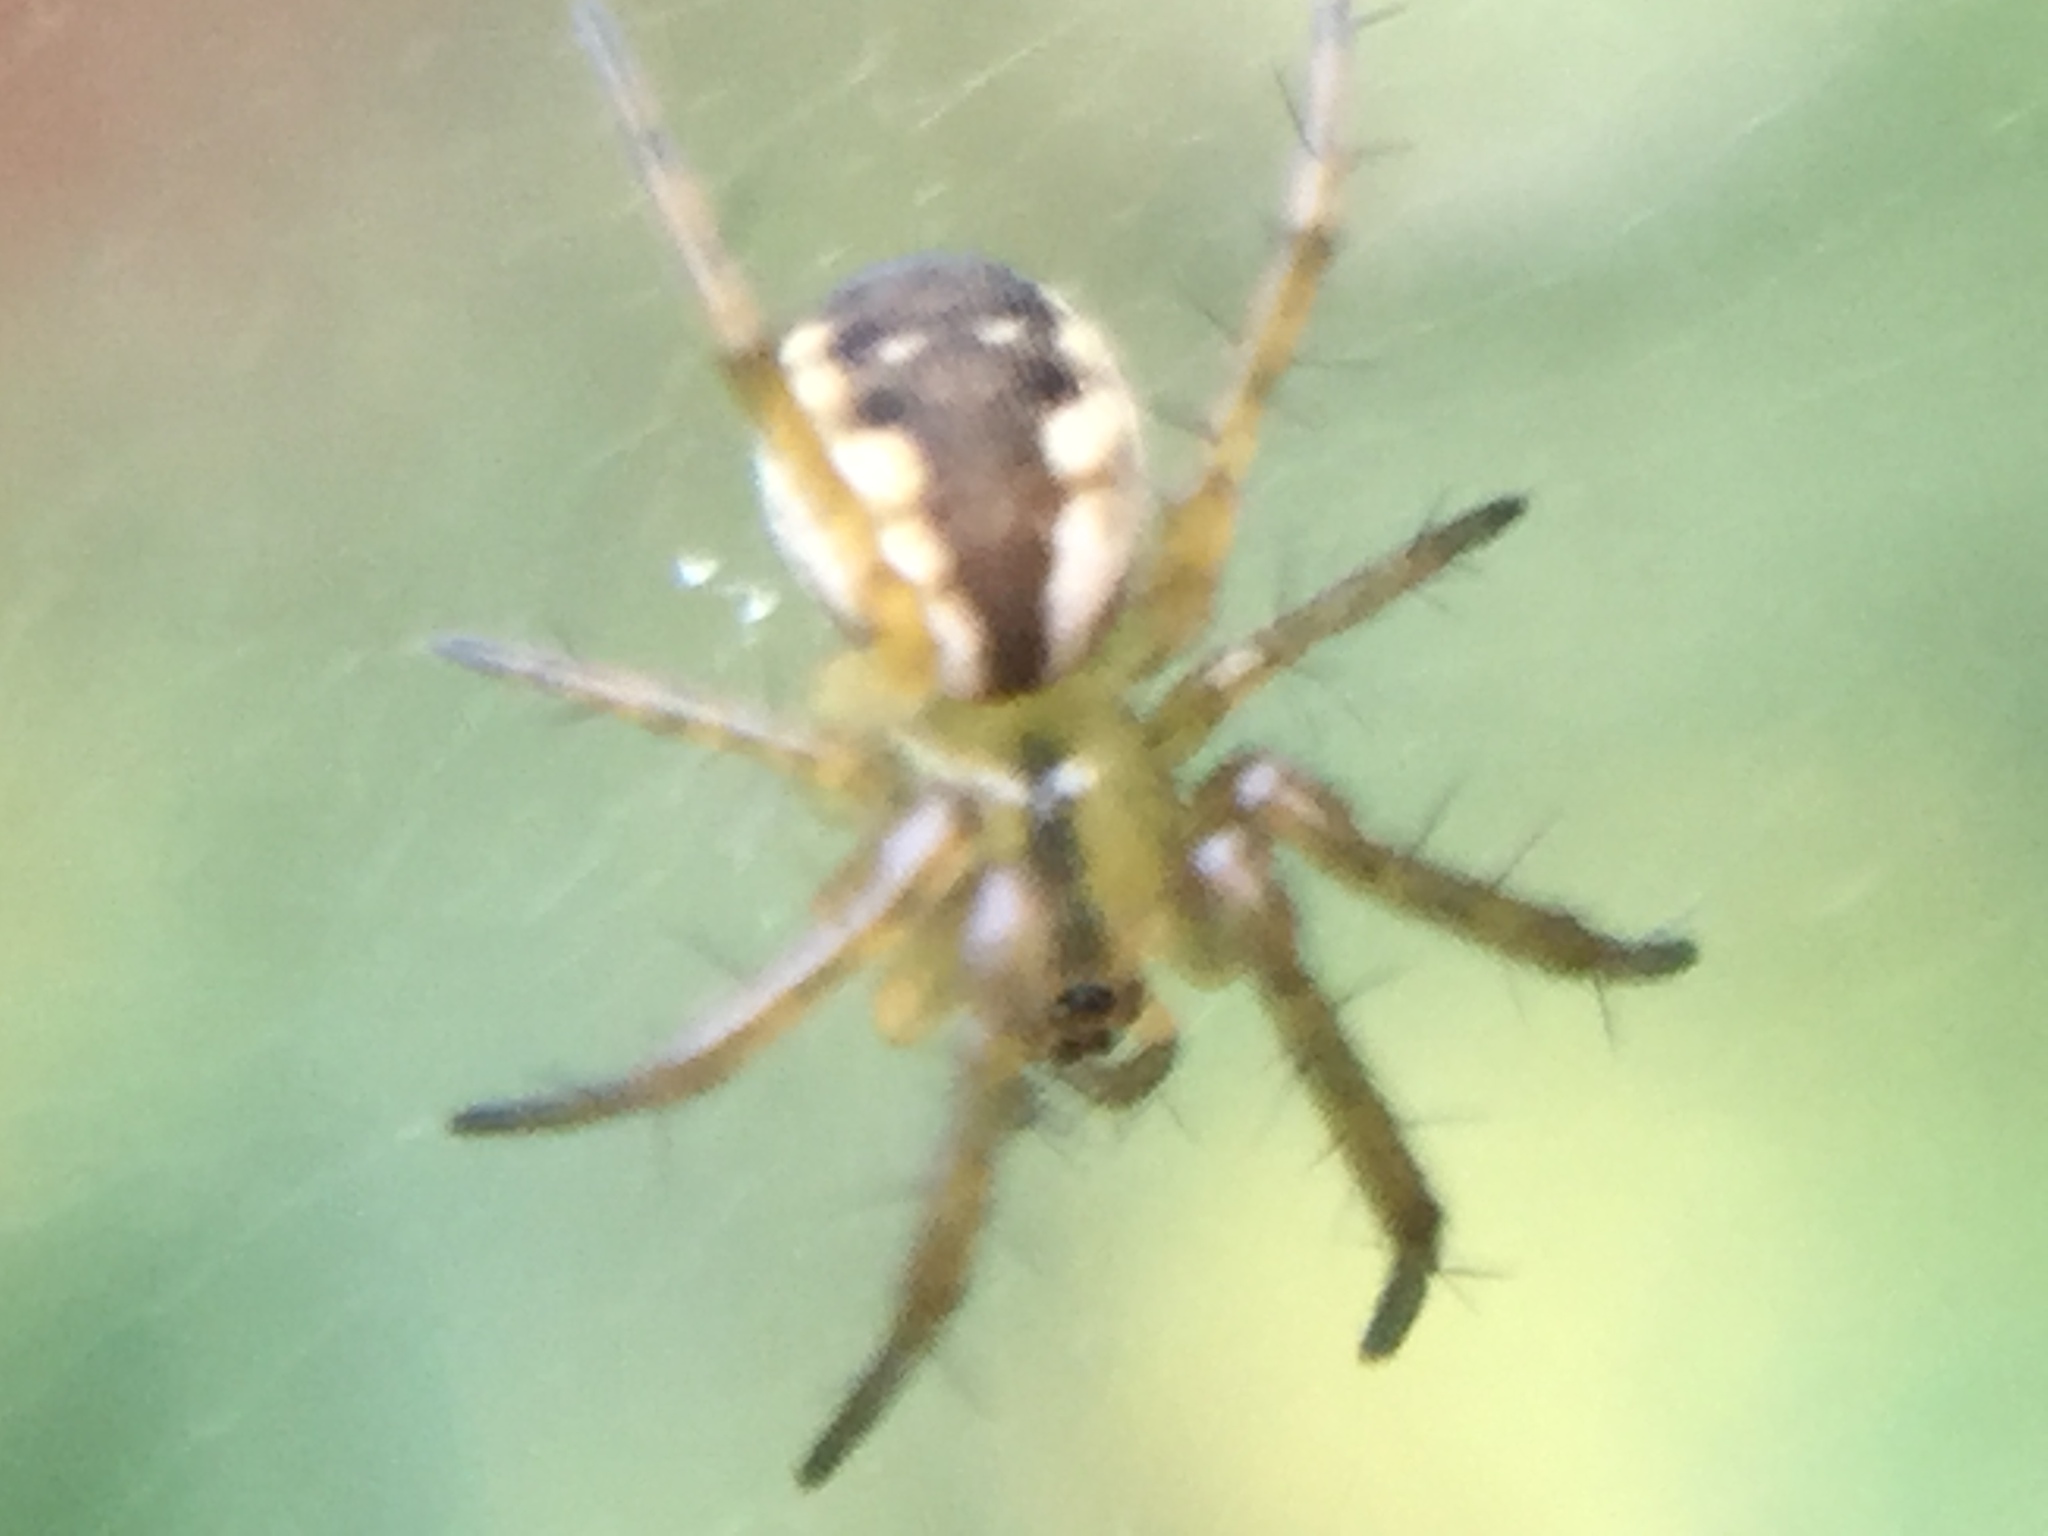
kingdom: Animalia
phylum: Arthropoda
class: Arachnida
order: Araneae
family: Araneidae
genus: Mangora
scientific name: Mangora placida
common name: Tuft-legged orbweaver
